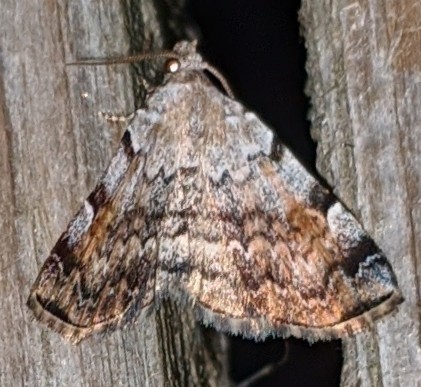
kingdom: Animalia
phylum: Arthropoda
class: Insecta
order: Lepidoptera
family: Erebidae
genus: Idia
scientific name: Idia americalis
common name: American idia moth
